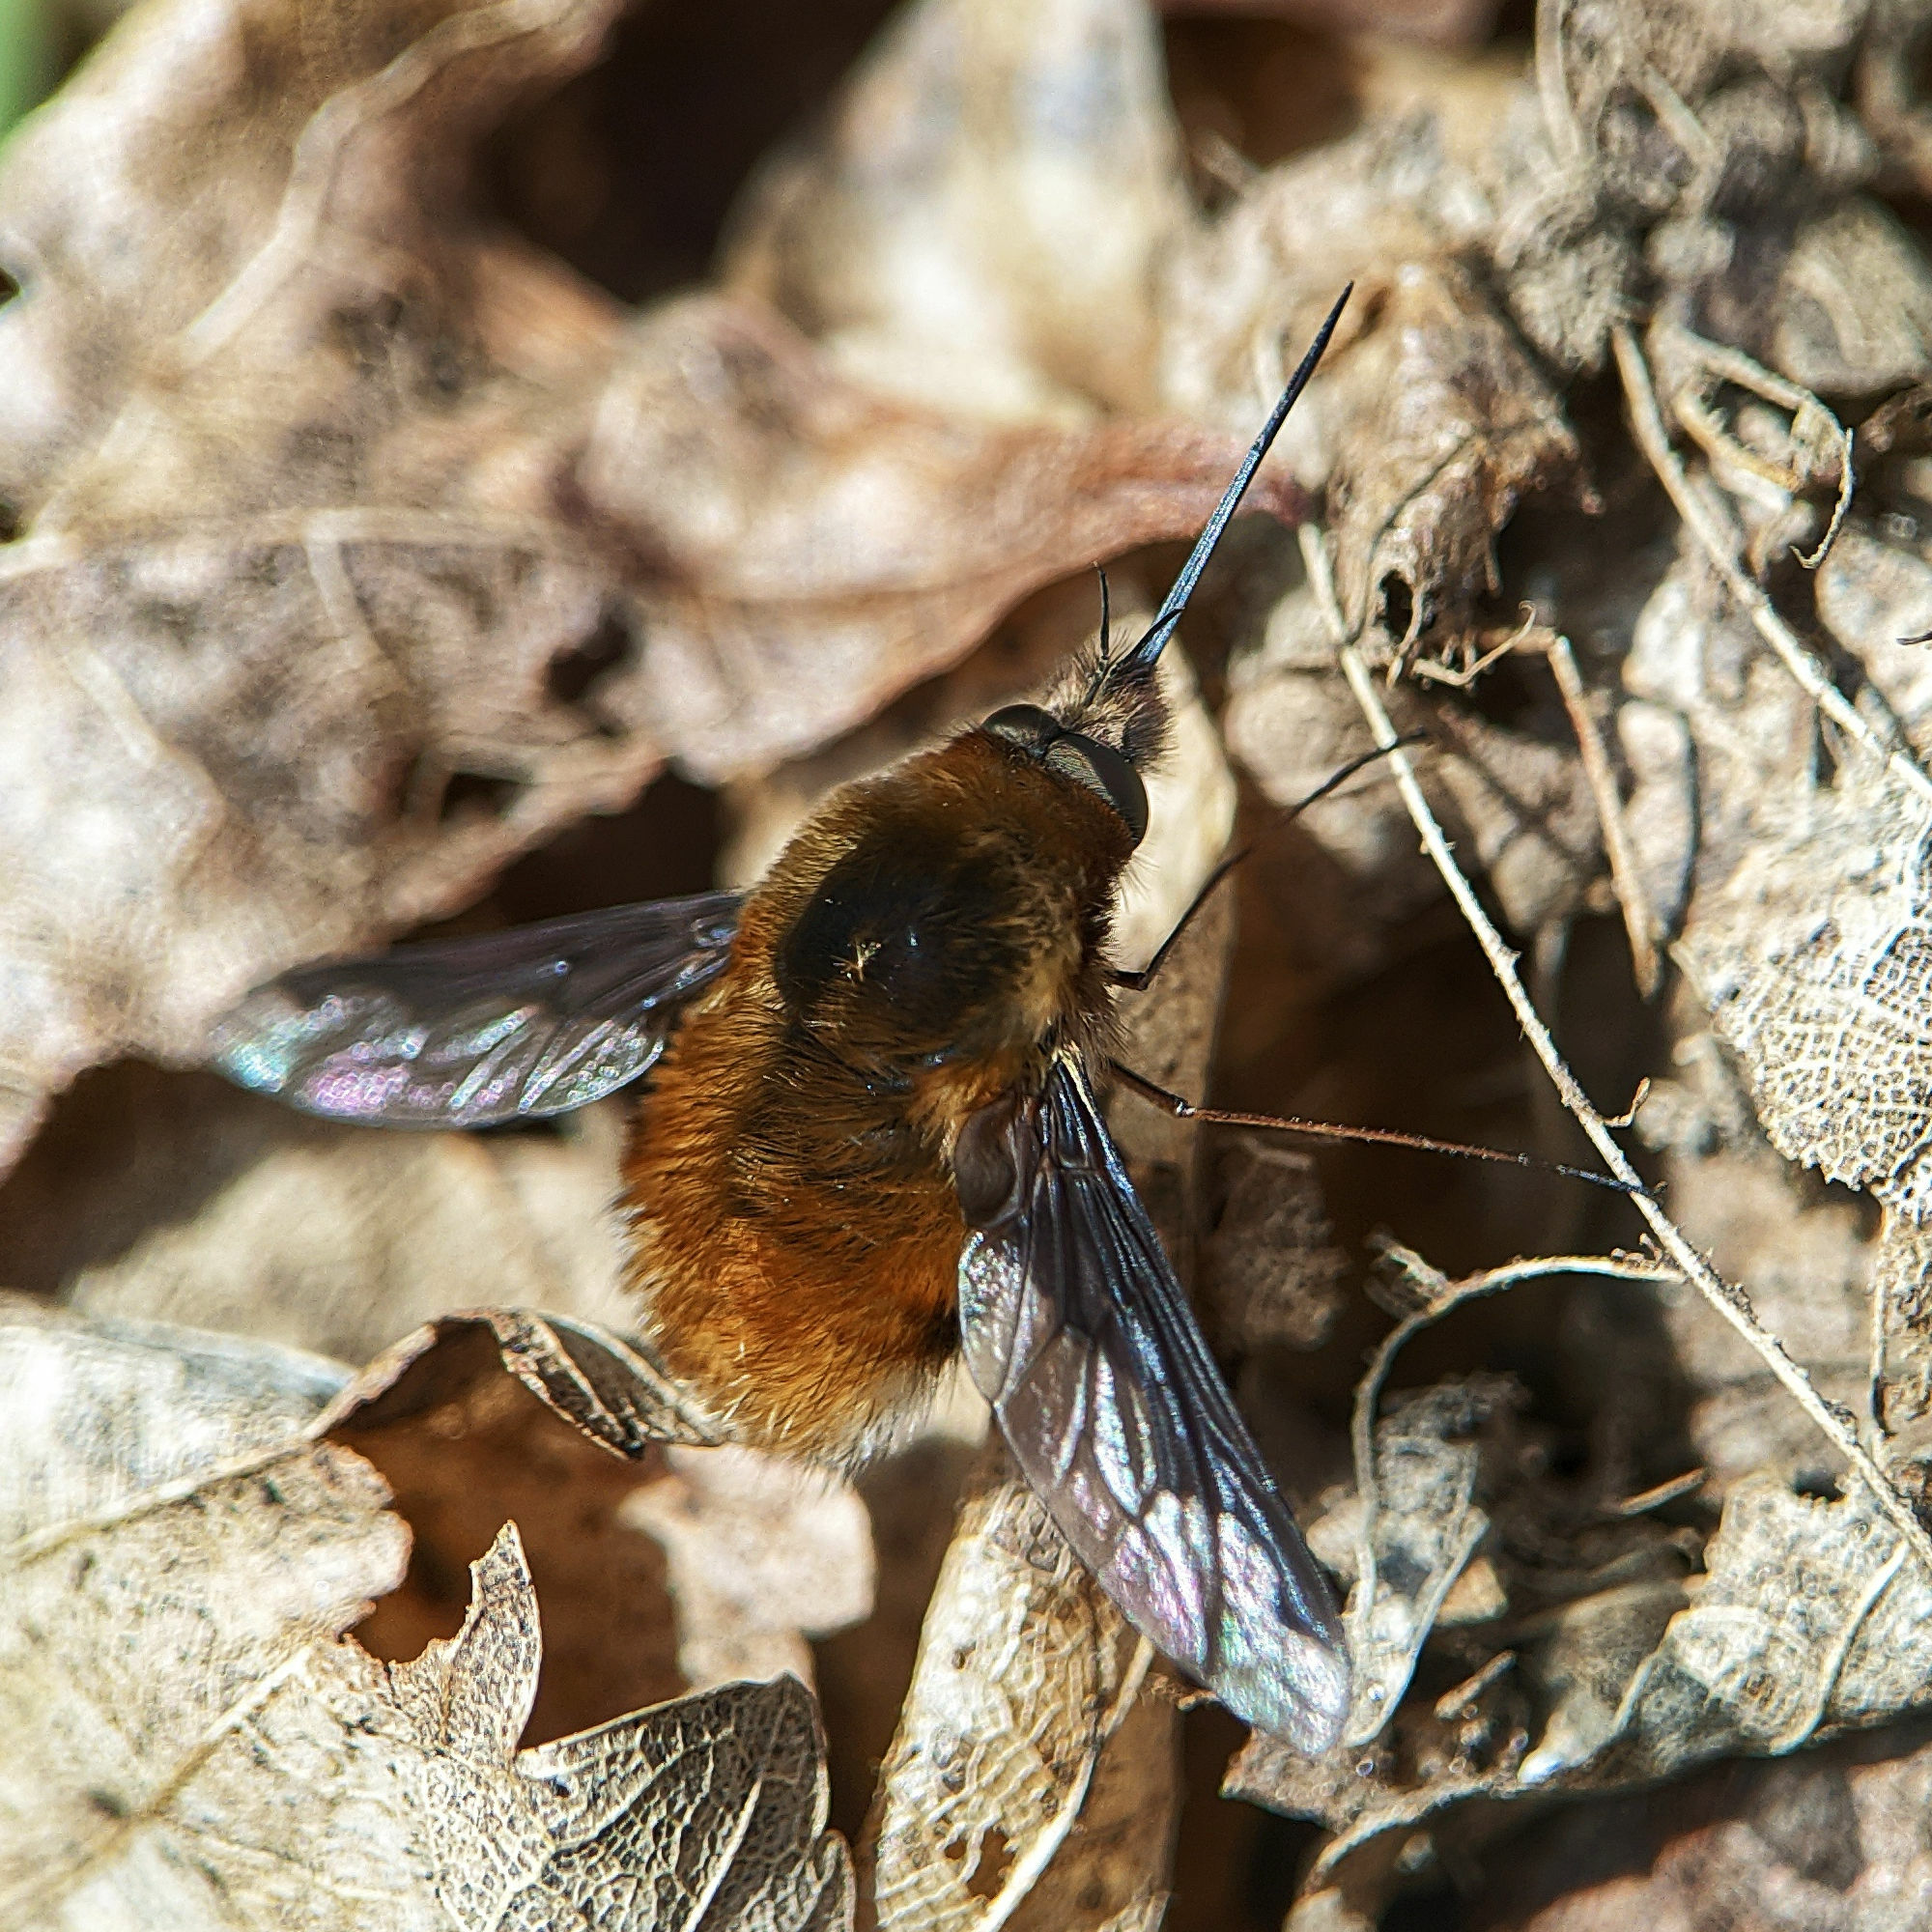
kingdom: Animalia
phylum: Arthropoda
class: Insecta
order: Diptera
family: Bombyliidae
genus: Bombylius
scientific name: Bombylius major
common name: Bee fly
